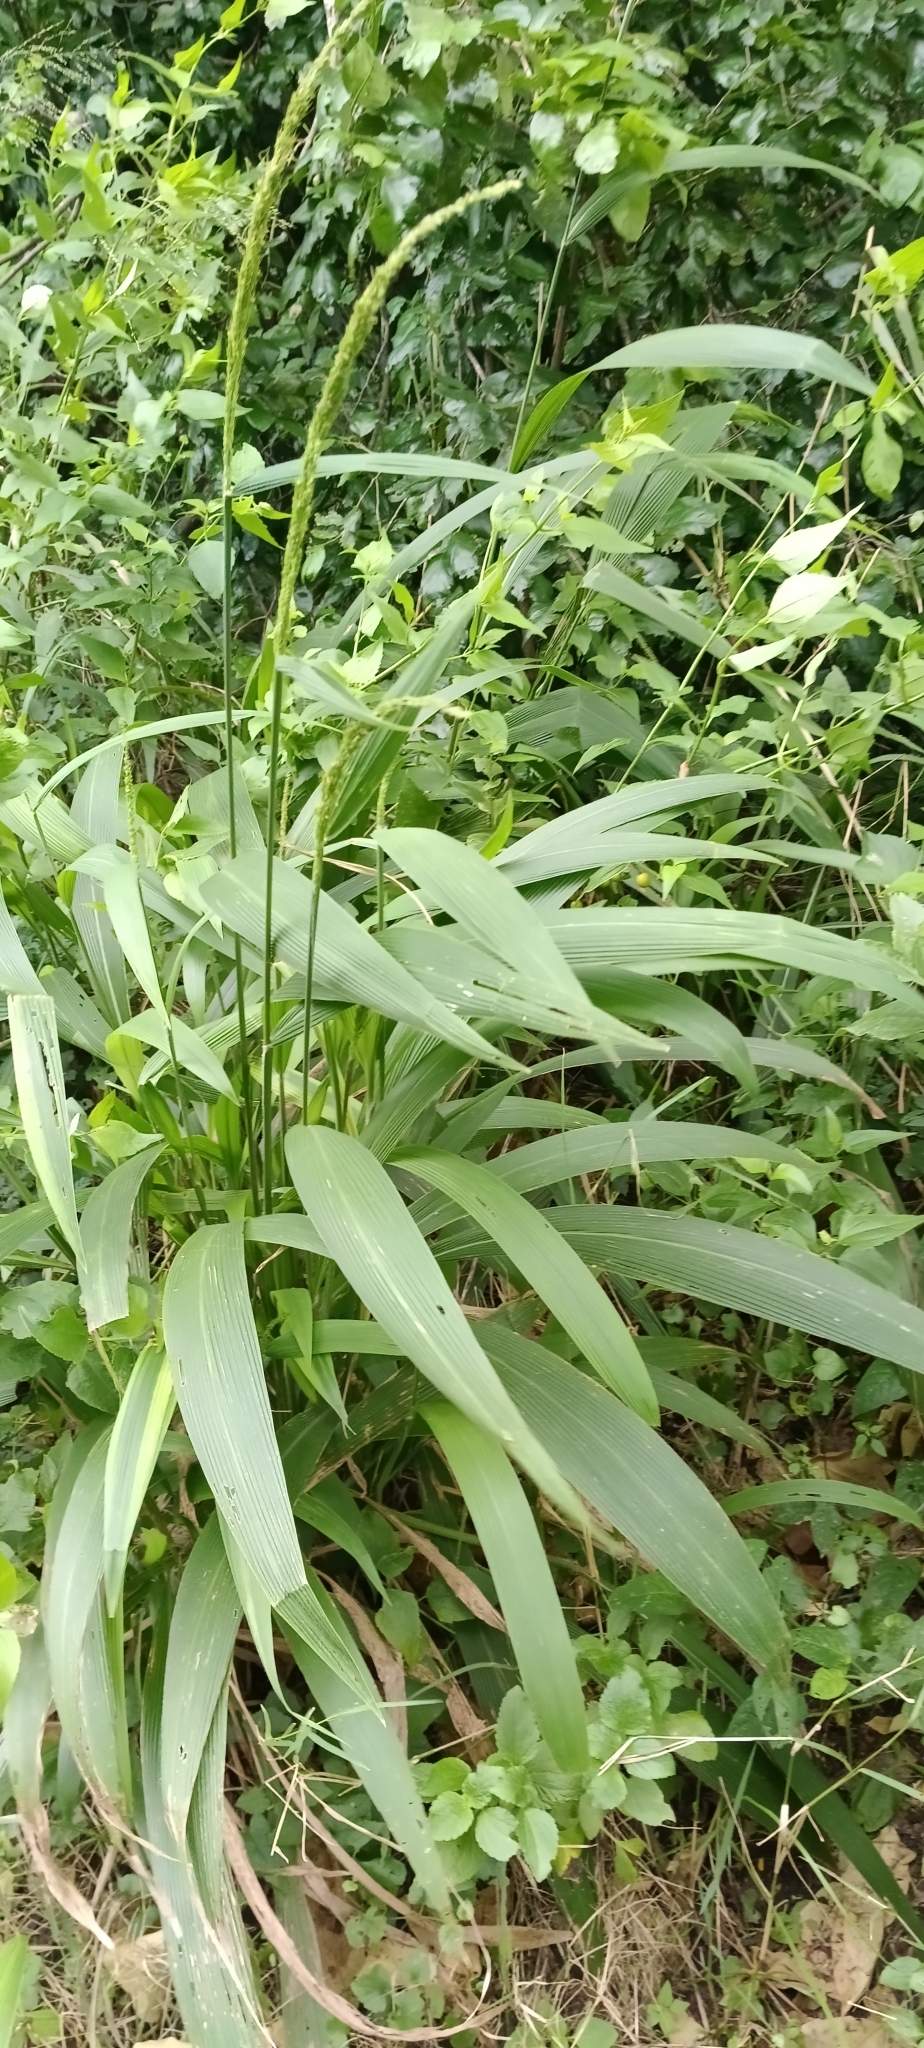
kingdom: Plantae
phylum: Tracheophyta
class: Liliopsida
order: Poales
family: Poaceae
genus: Setaria
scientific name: Setaria megaphylla
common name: Bigleaf bristlegrass
